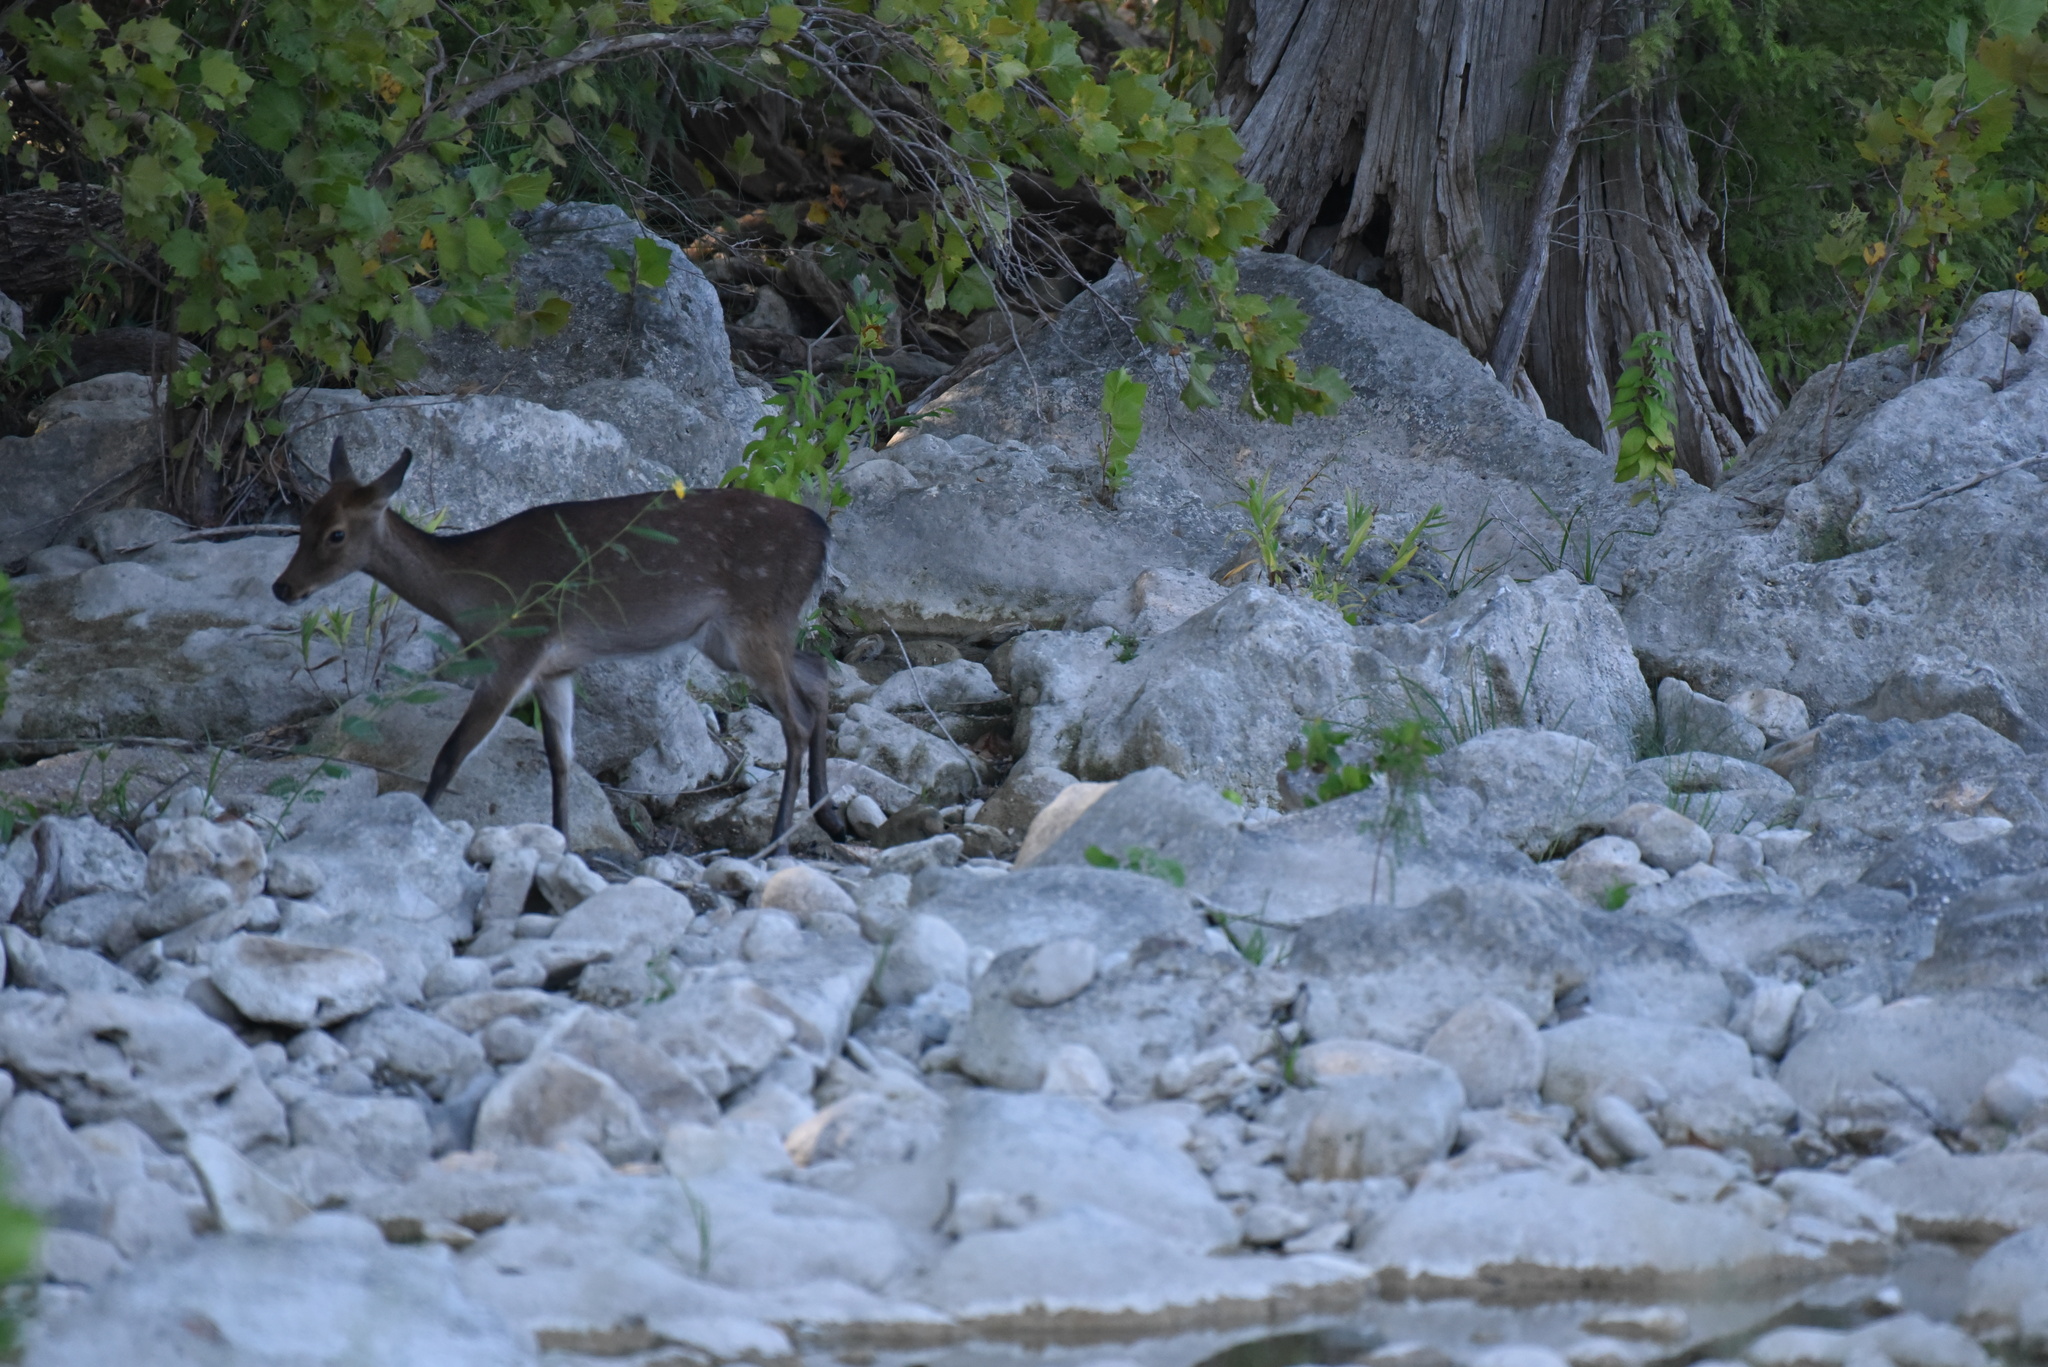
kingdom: Animalia
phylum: Chordata
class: Mammalia
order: Artiodactyla
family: Cervidae
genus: Cervus
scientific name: Cervus nippon
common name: Sika deer
